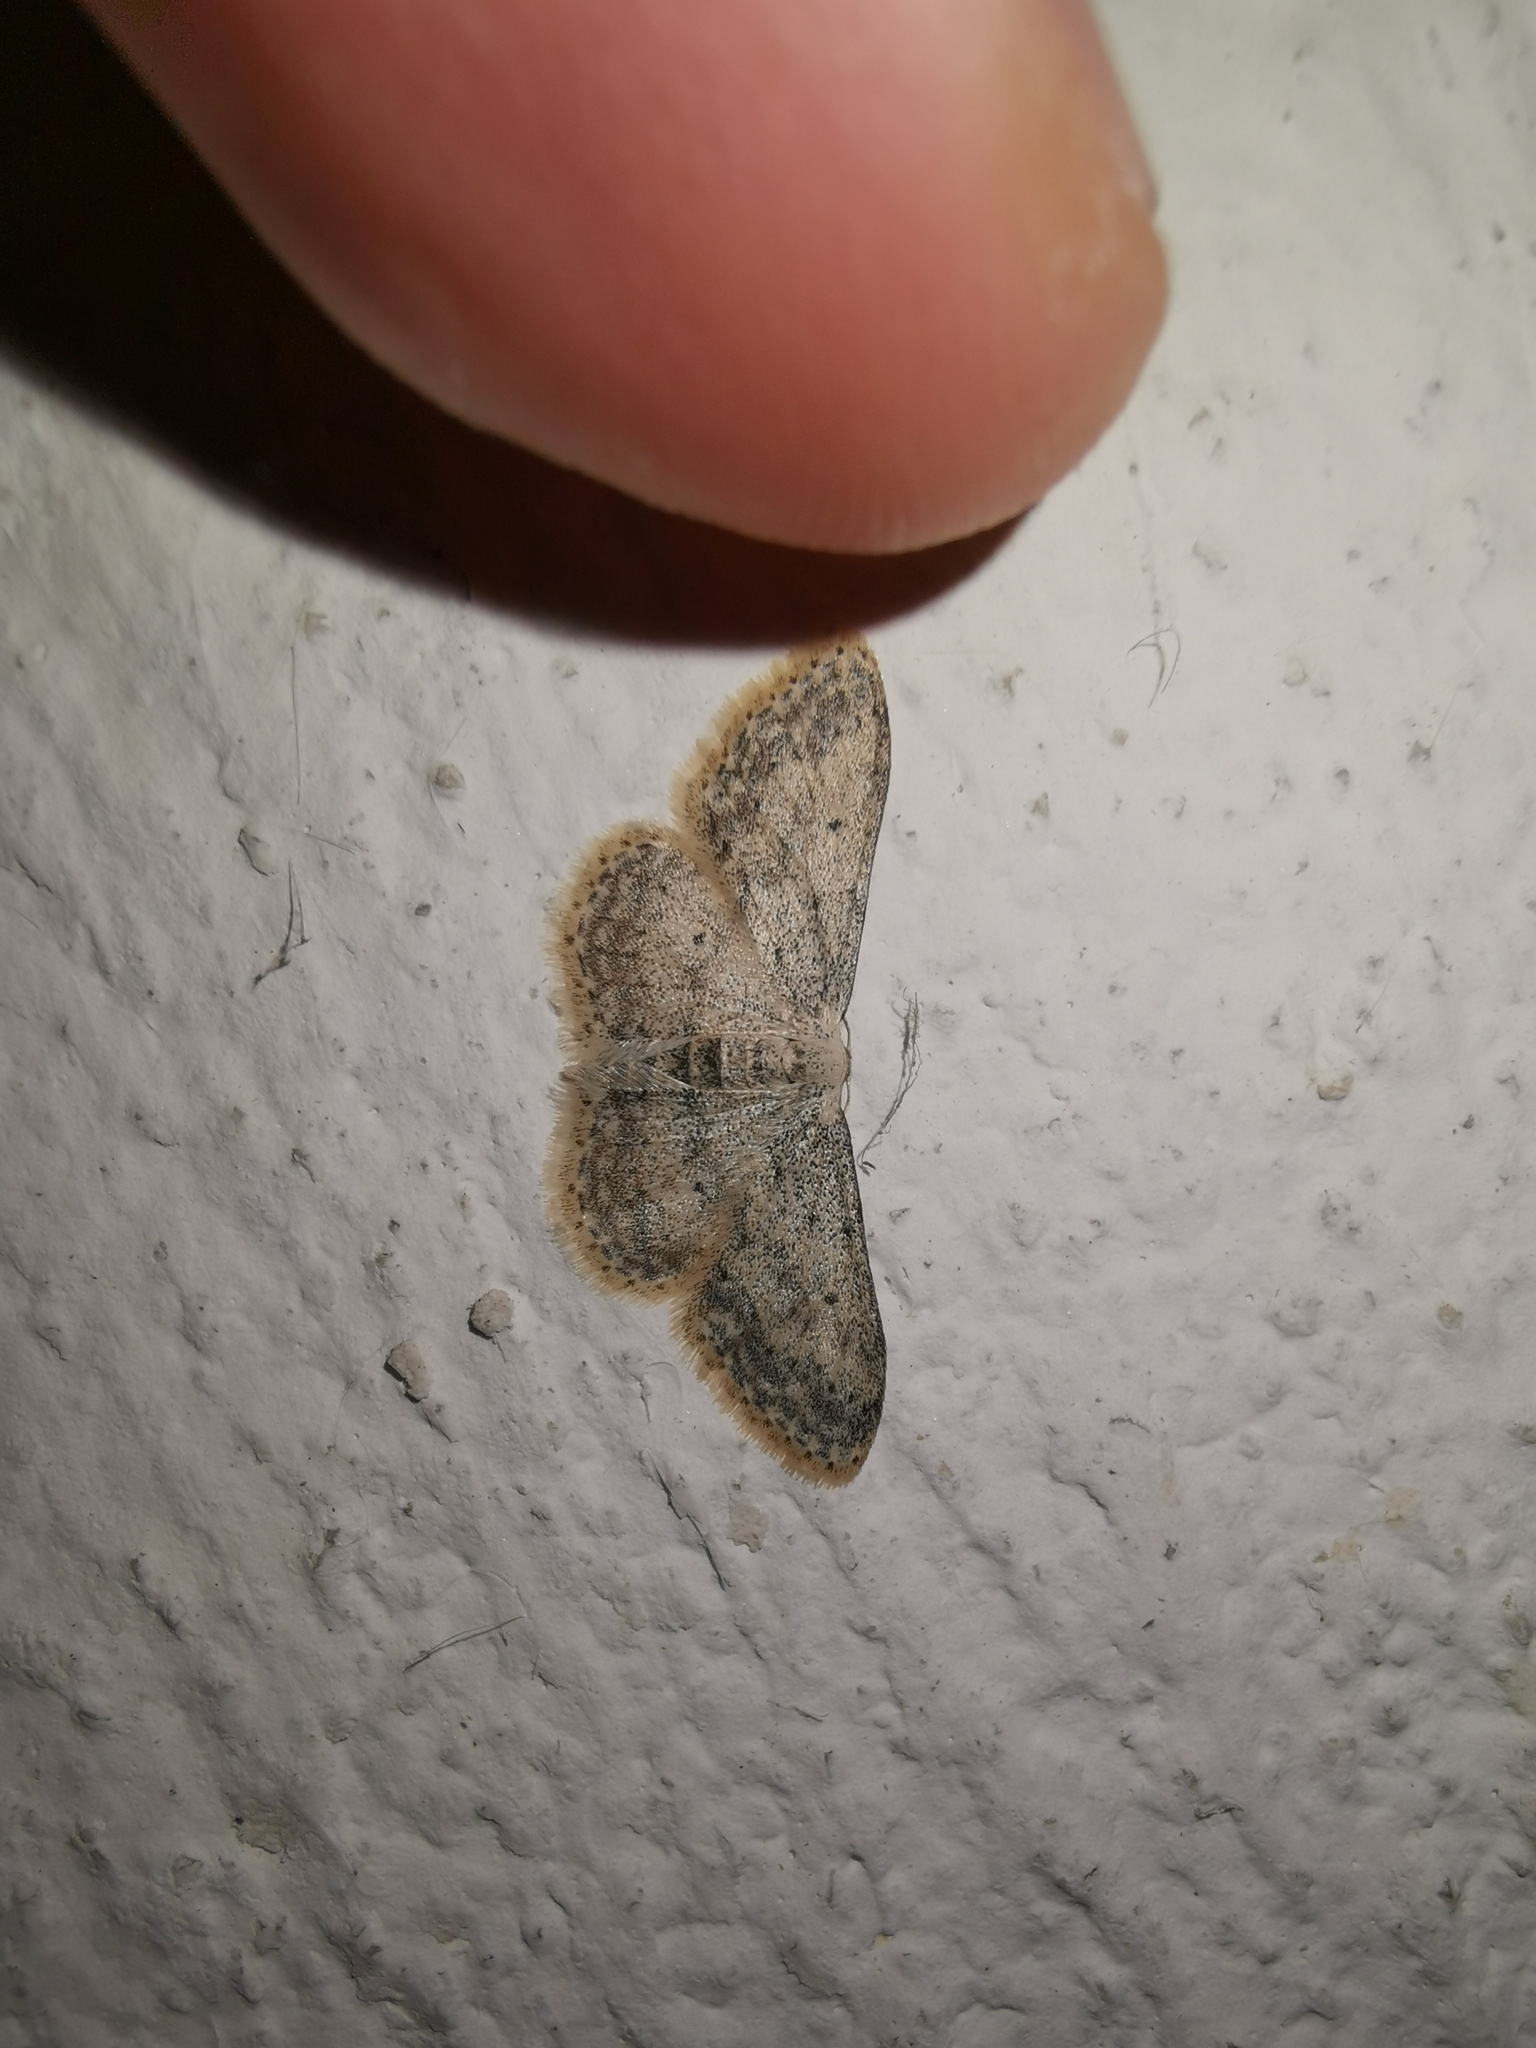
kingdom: Animalia
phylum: Arthropoda
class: Insecta
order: Lepidoptera
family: Geometridae
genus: Idaea
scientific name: Idaea seriata
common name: Small dusty wave
